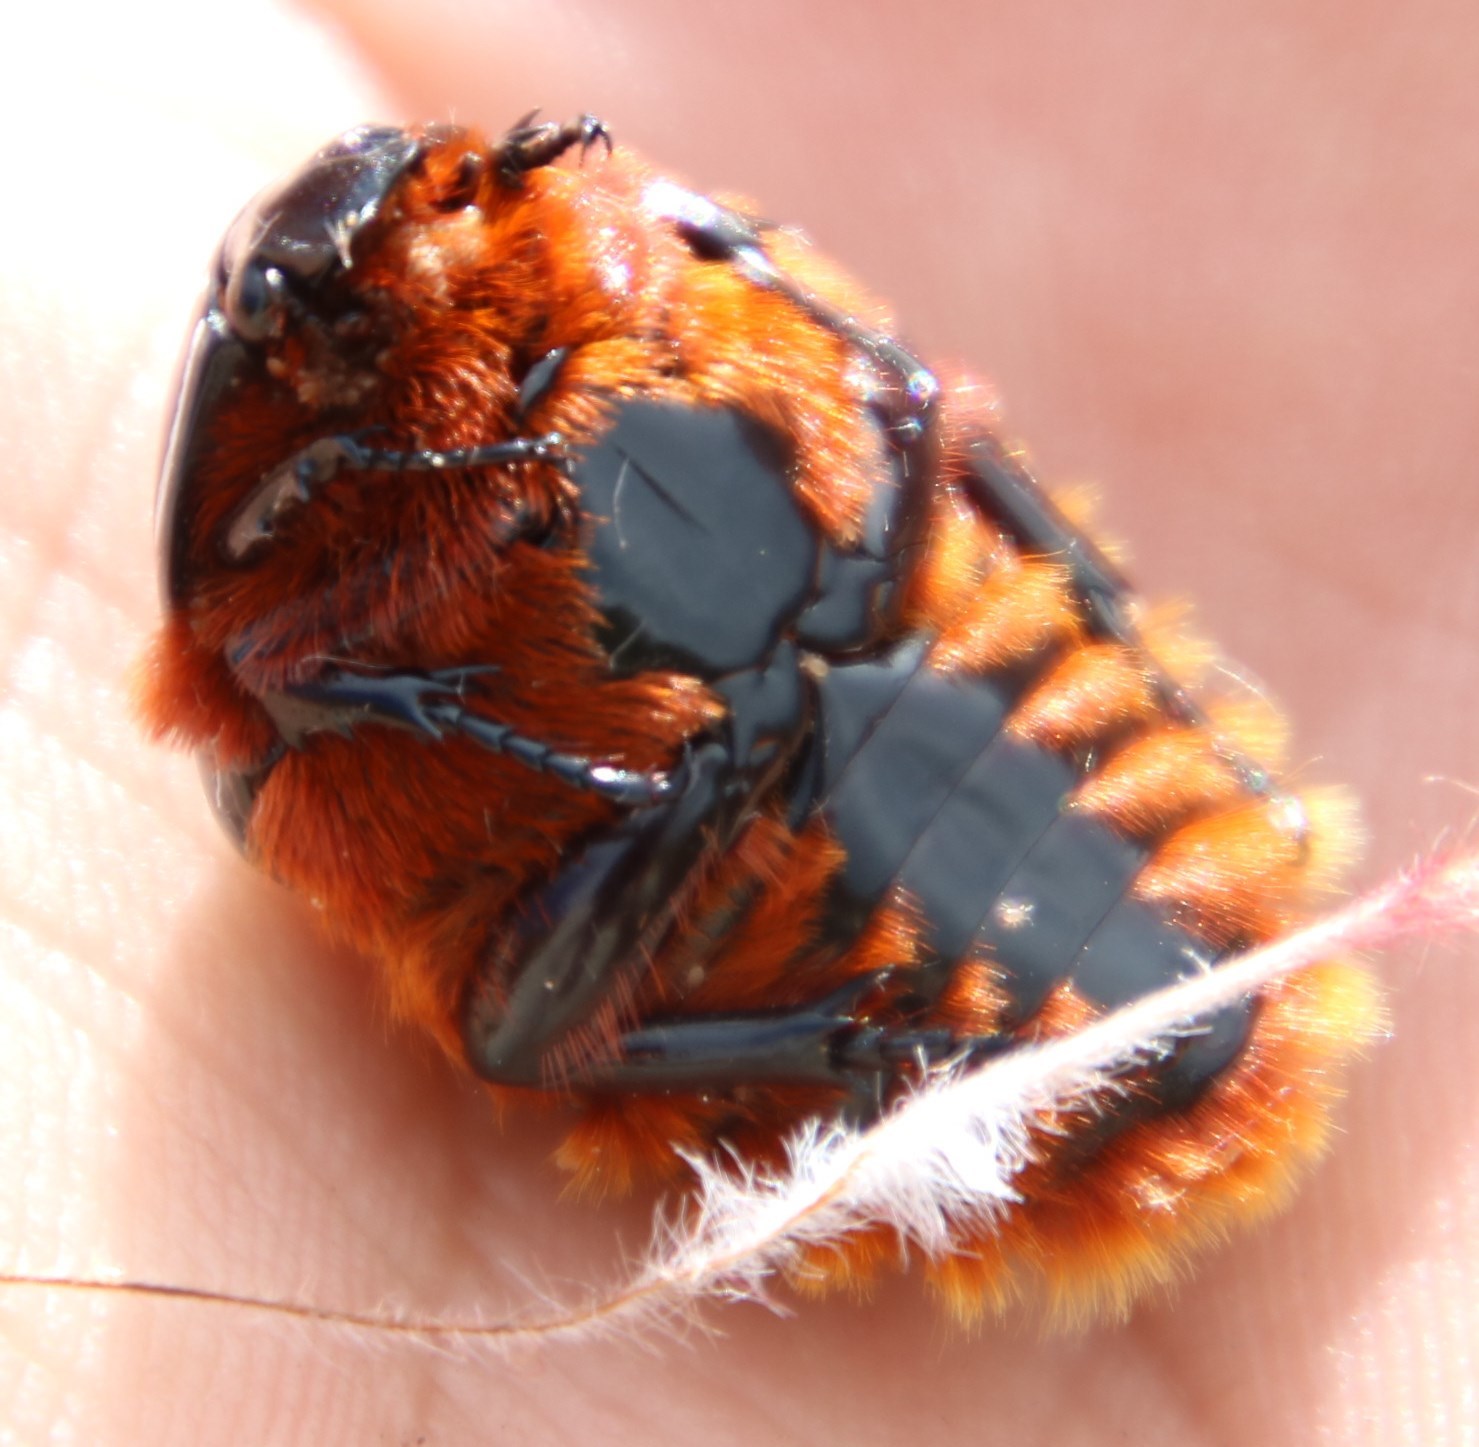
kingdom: Animalia
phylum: Arthropoda
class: Insecta
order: Coleoptera
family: Scarabaeidae
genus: Trichostetha
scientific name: Trichostetha fascicularis
